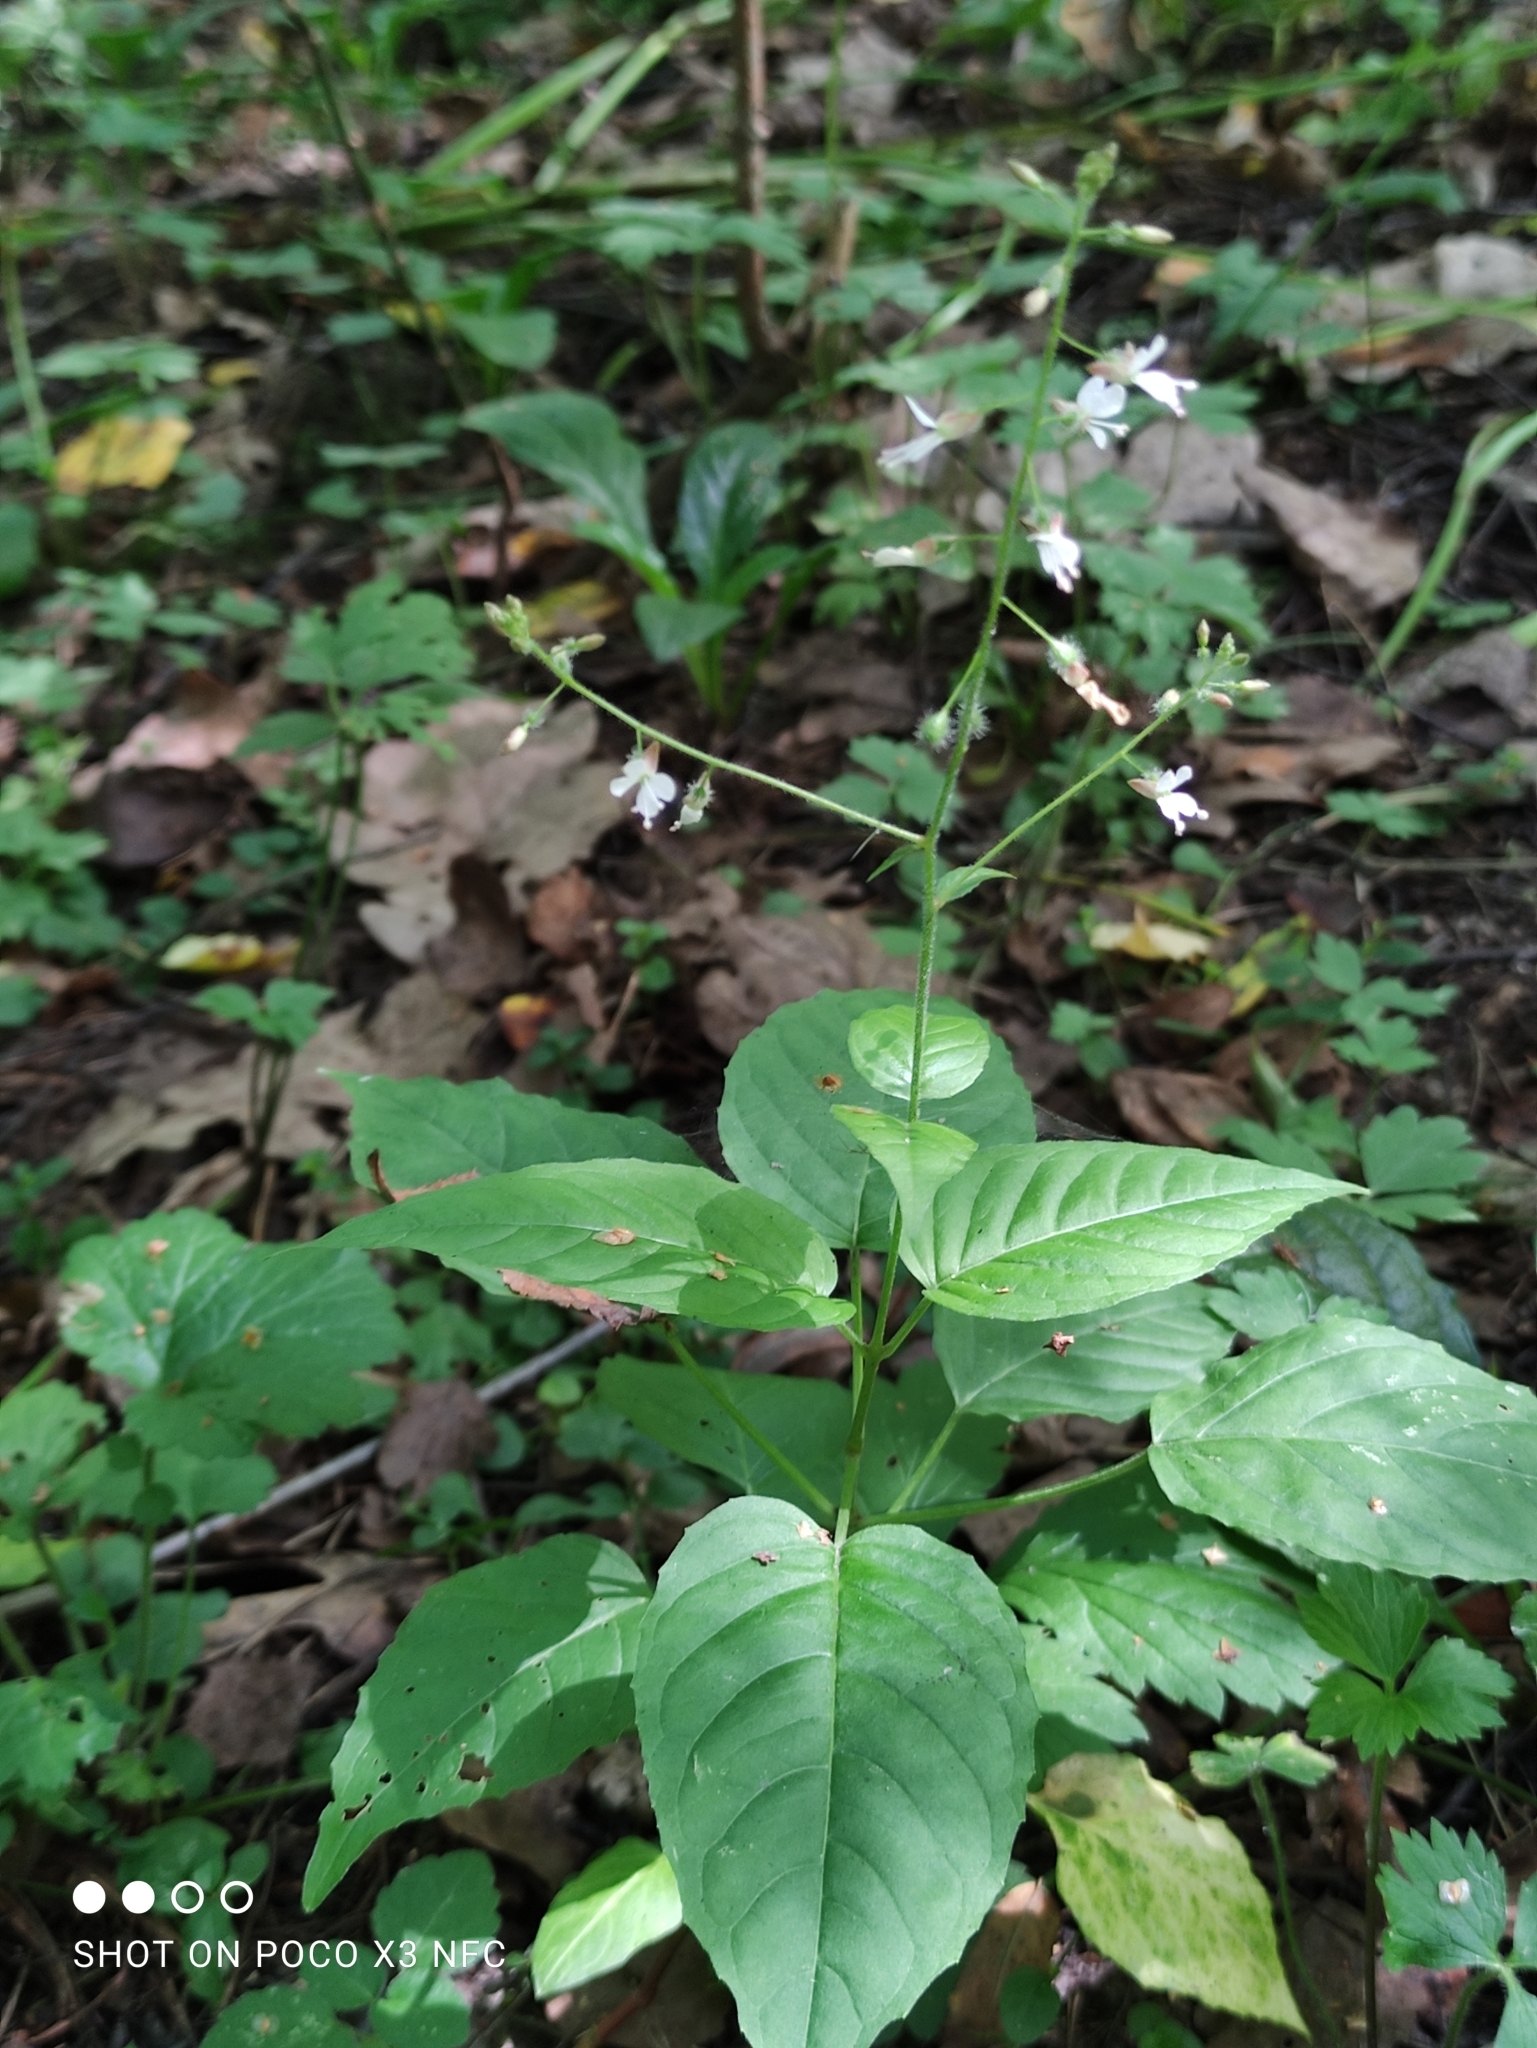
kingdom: Plantae
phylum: Tracheophyta
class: Magnoliopsida
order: Myrtales
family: Onagraceae
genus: Circaea
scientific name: Circaea lutetiana
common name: Enchanter's-nightshade
